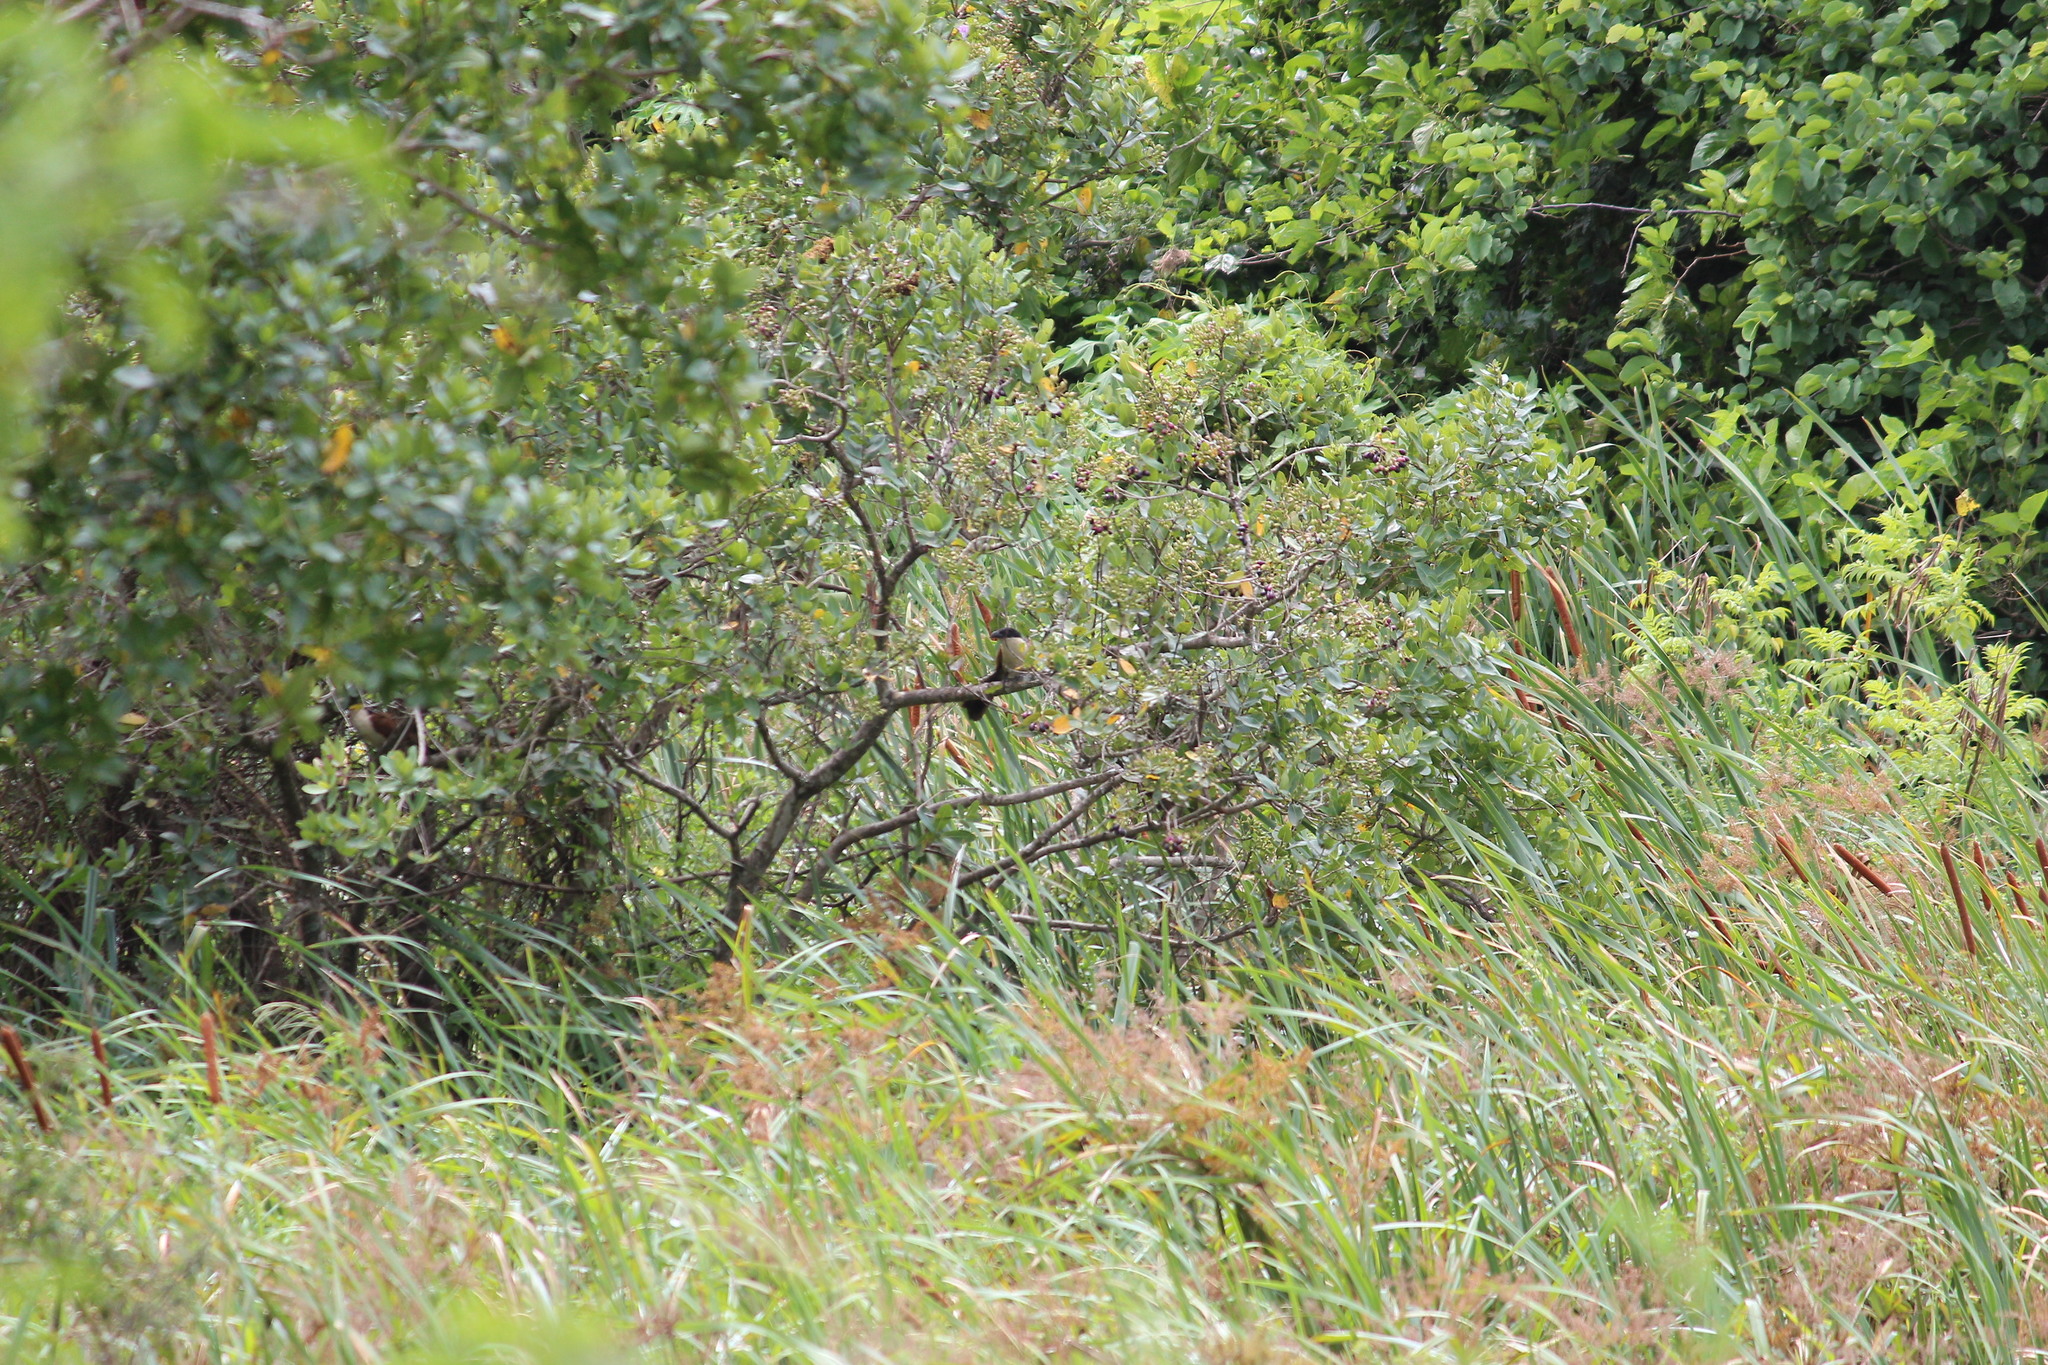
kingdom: Animalia
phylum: Chordata
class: Aves
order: Cuculiformes
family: Cuculidae
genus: Centropus
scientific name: Centropus superciliosus
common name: White-browed coucal
